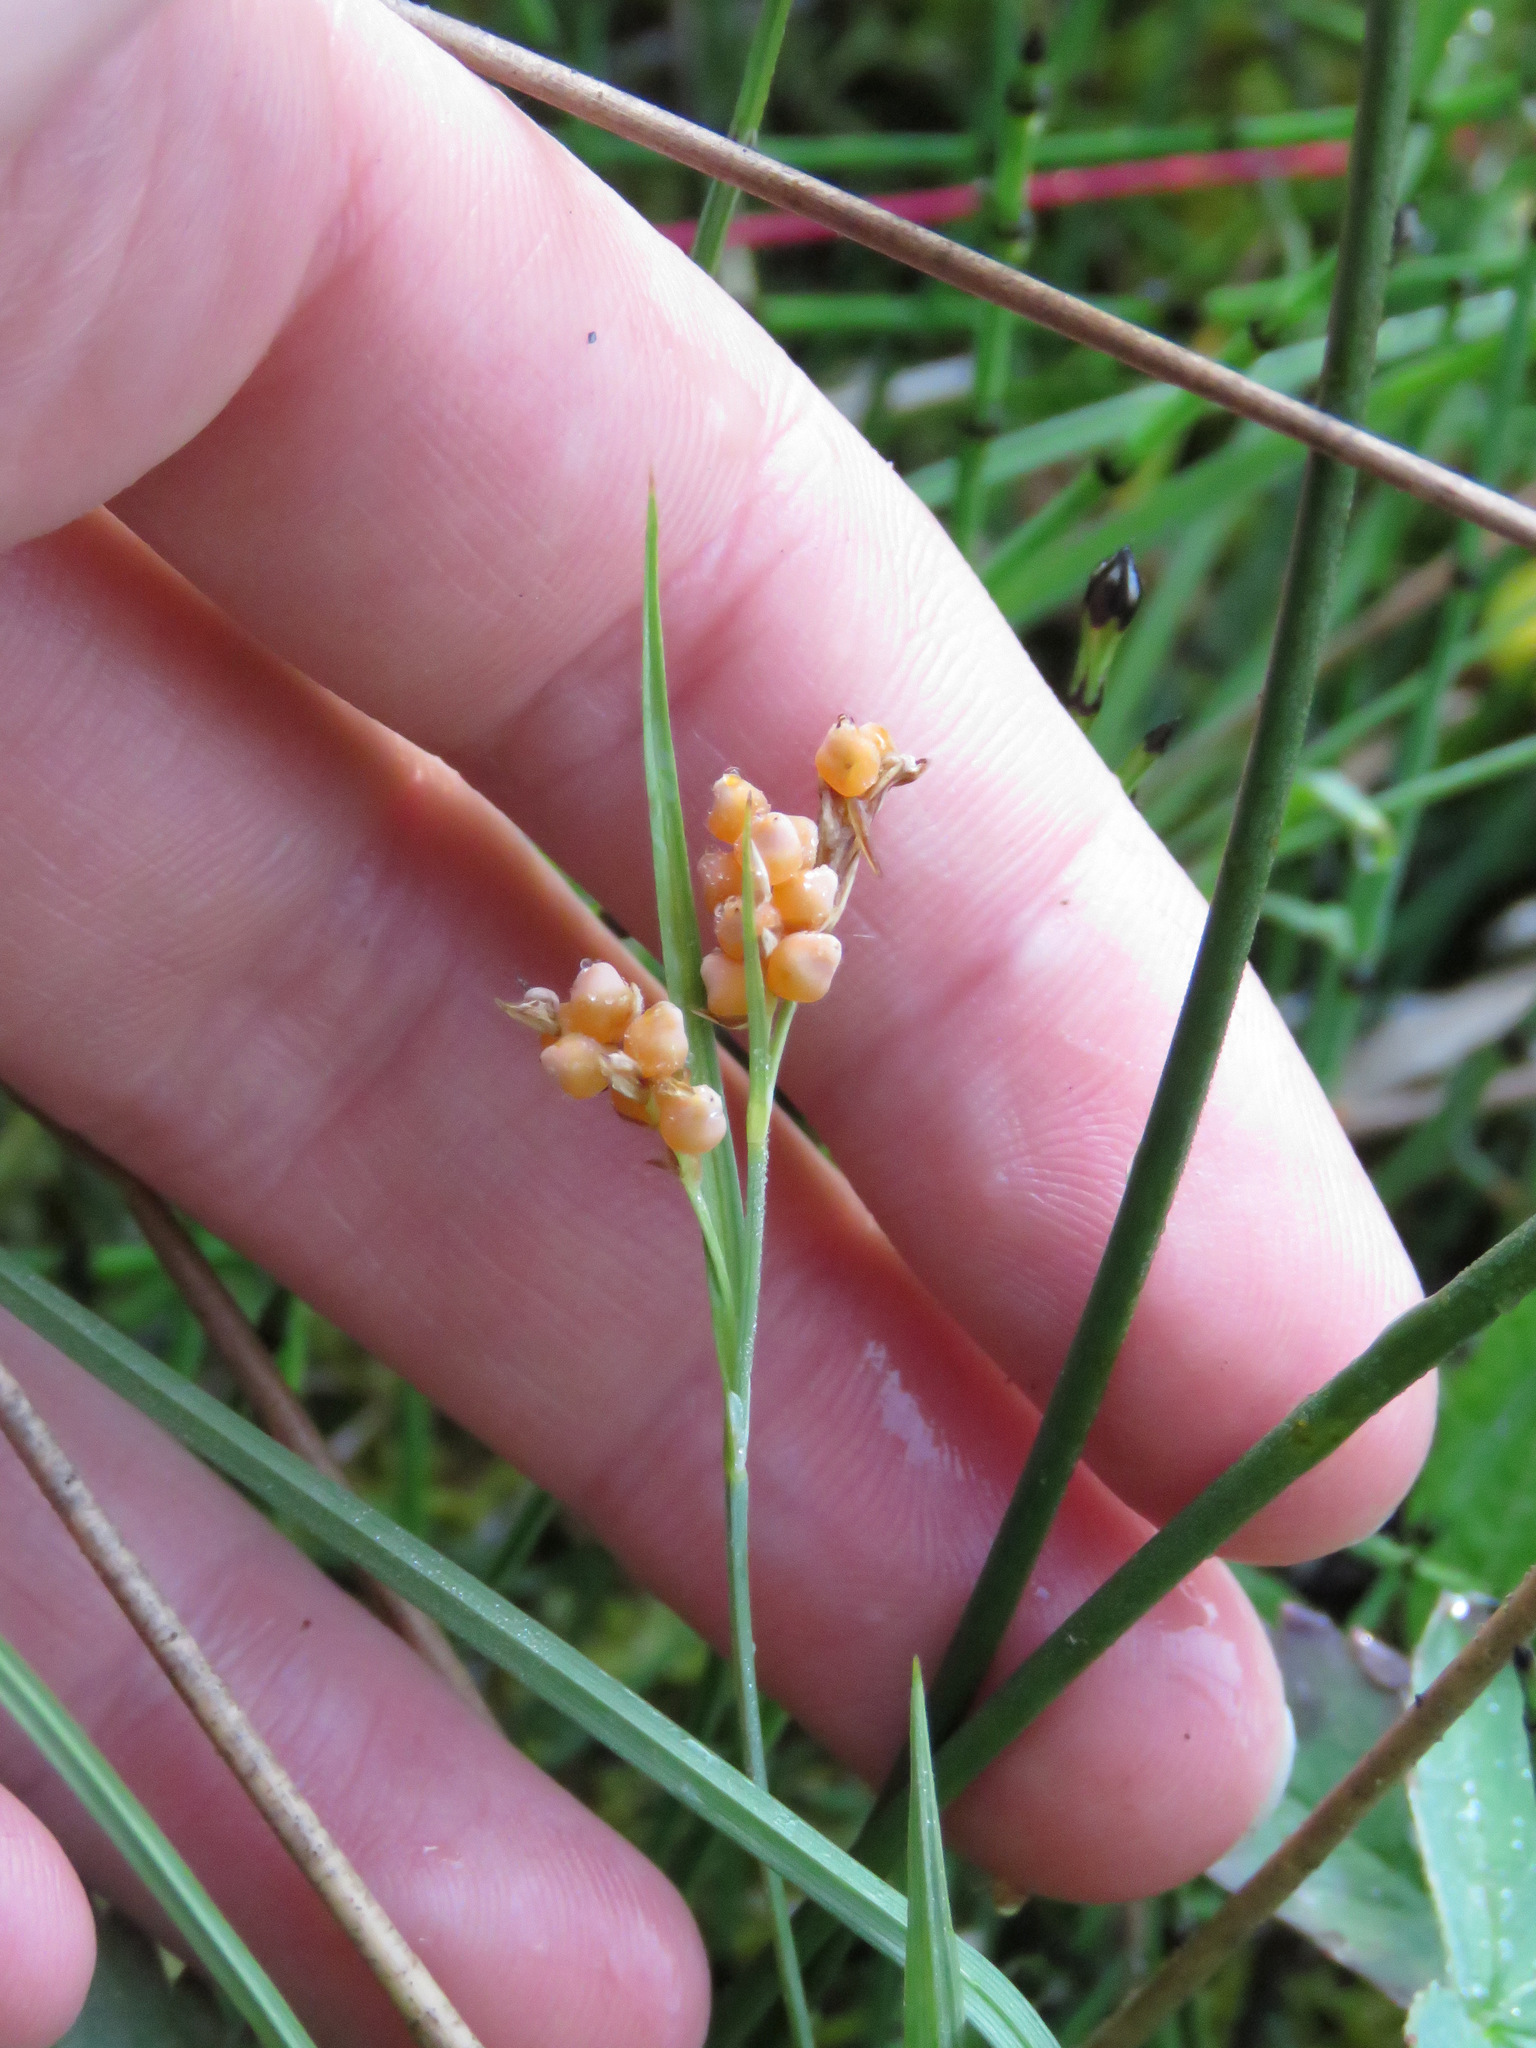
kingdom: Plantae
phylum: Tracheophyta
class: Liliopsida
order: Poales
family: Cyperaceae
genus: Carex
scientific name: Carex aurea
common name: Golden sedge
